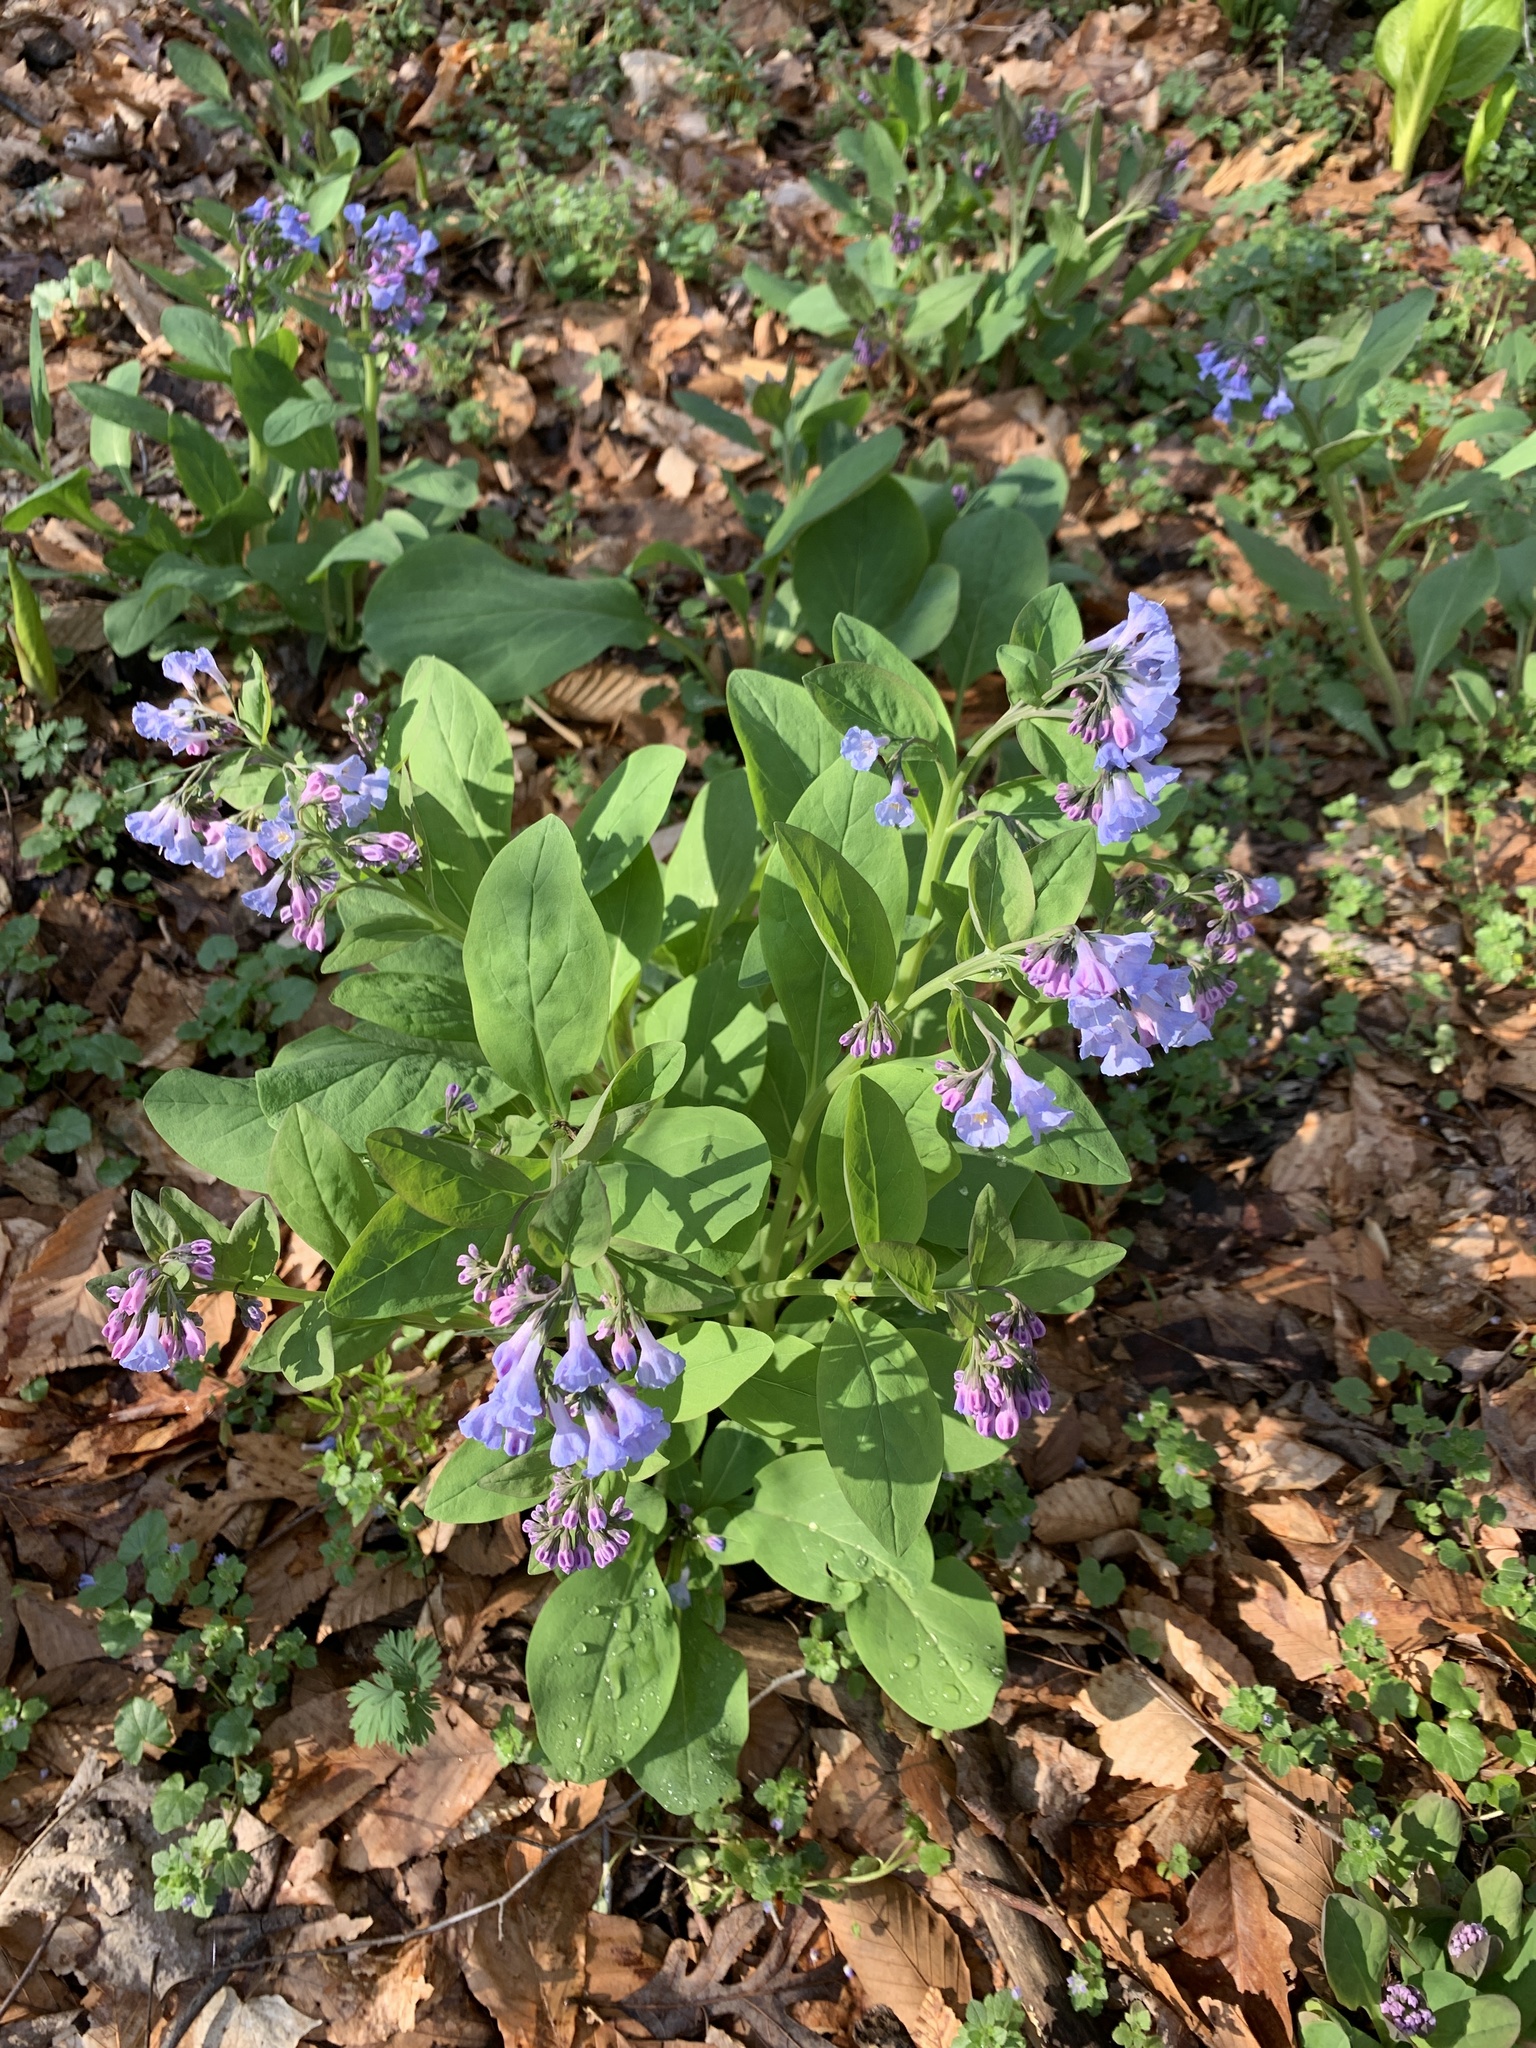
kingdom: Plantae
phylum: Tracheophyta
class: Magnoliopsida
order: Boraginales
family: Boraginaceae
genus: Mertensia
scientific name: Mertensia virginica
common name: Virginia bluebells
